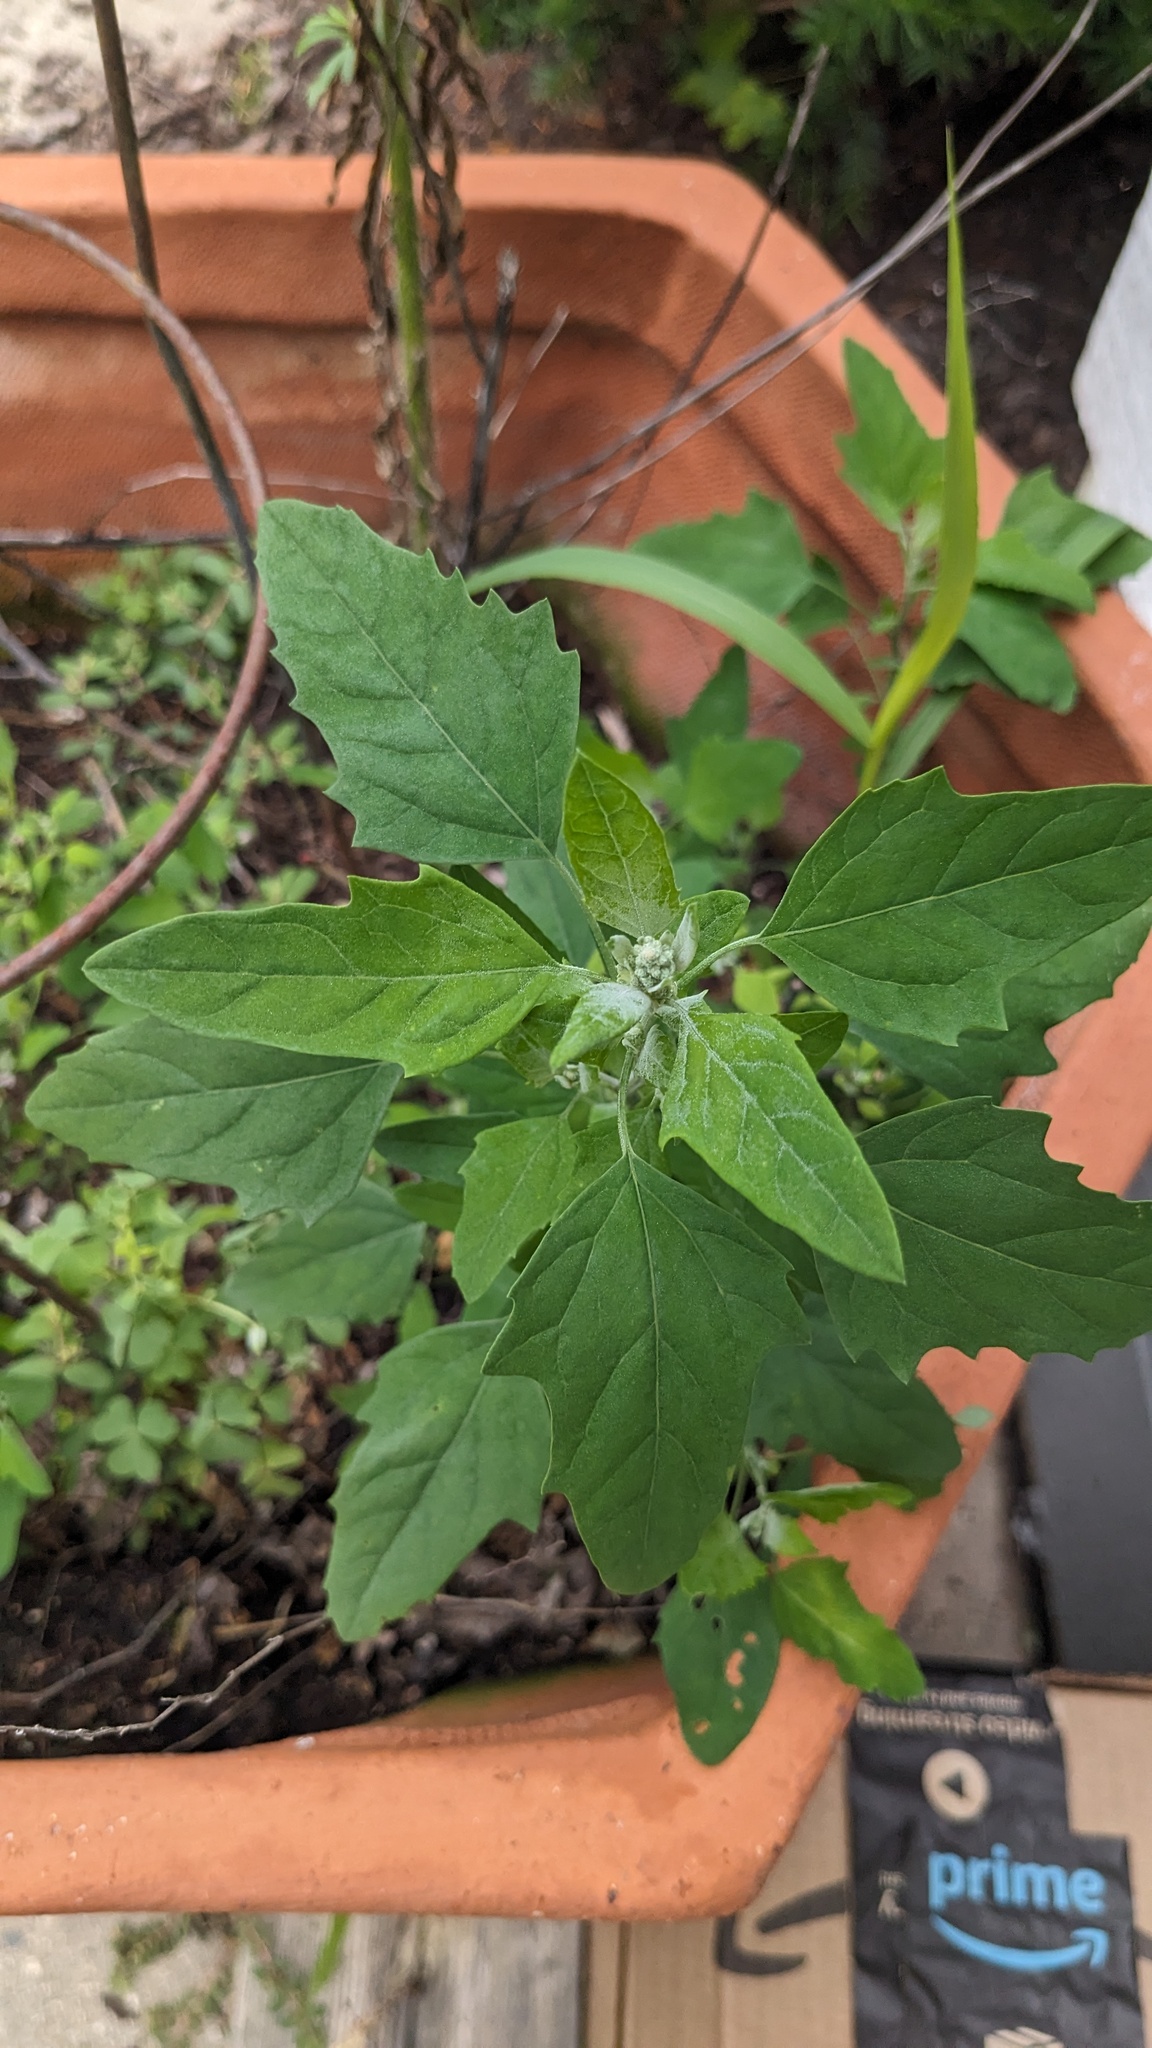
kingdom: Plantae
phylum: Tracheophyta
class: Magnoliopsida
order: Caryophyllales
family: Amaranthaceae
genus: Chenopodium
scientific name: Chenopodium album
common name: Fat-hen
